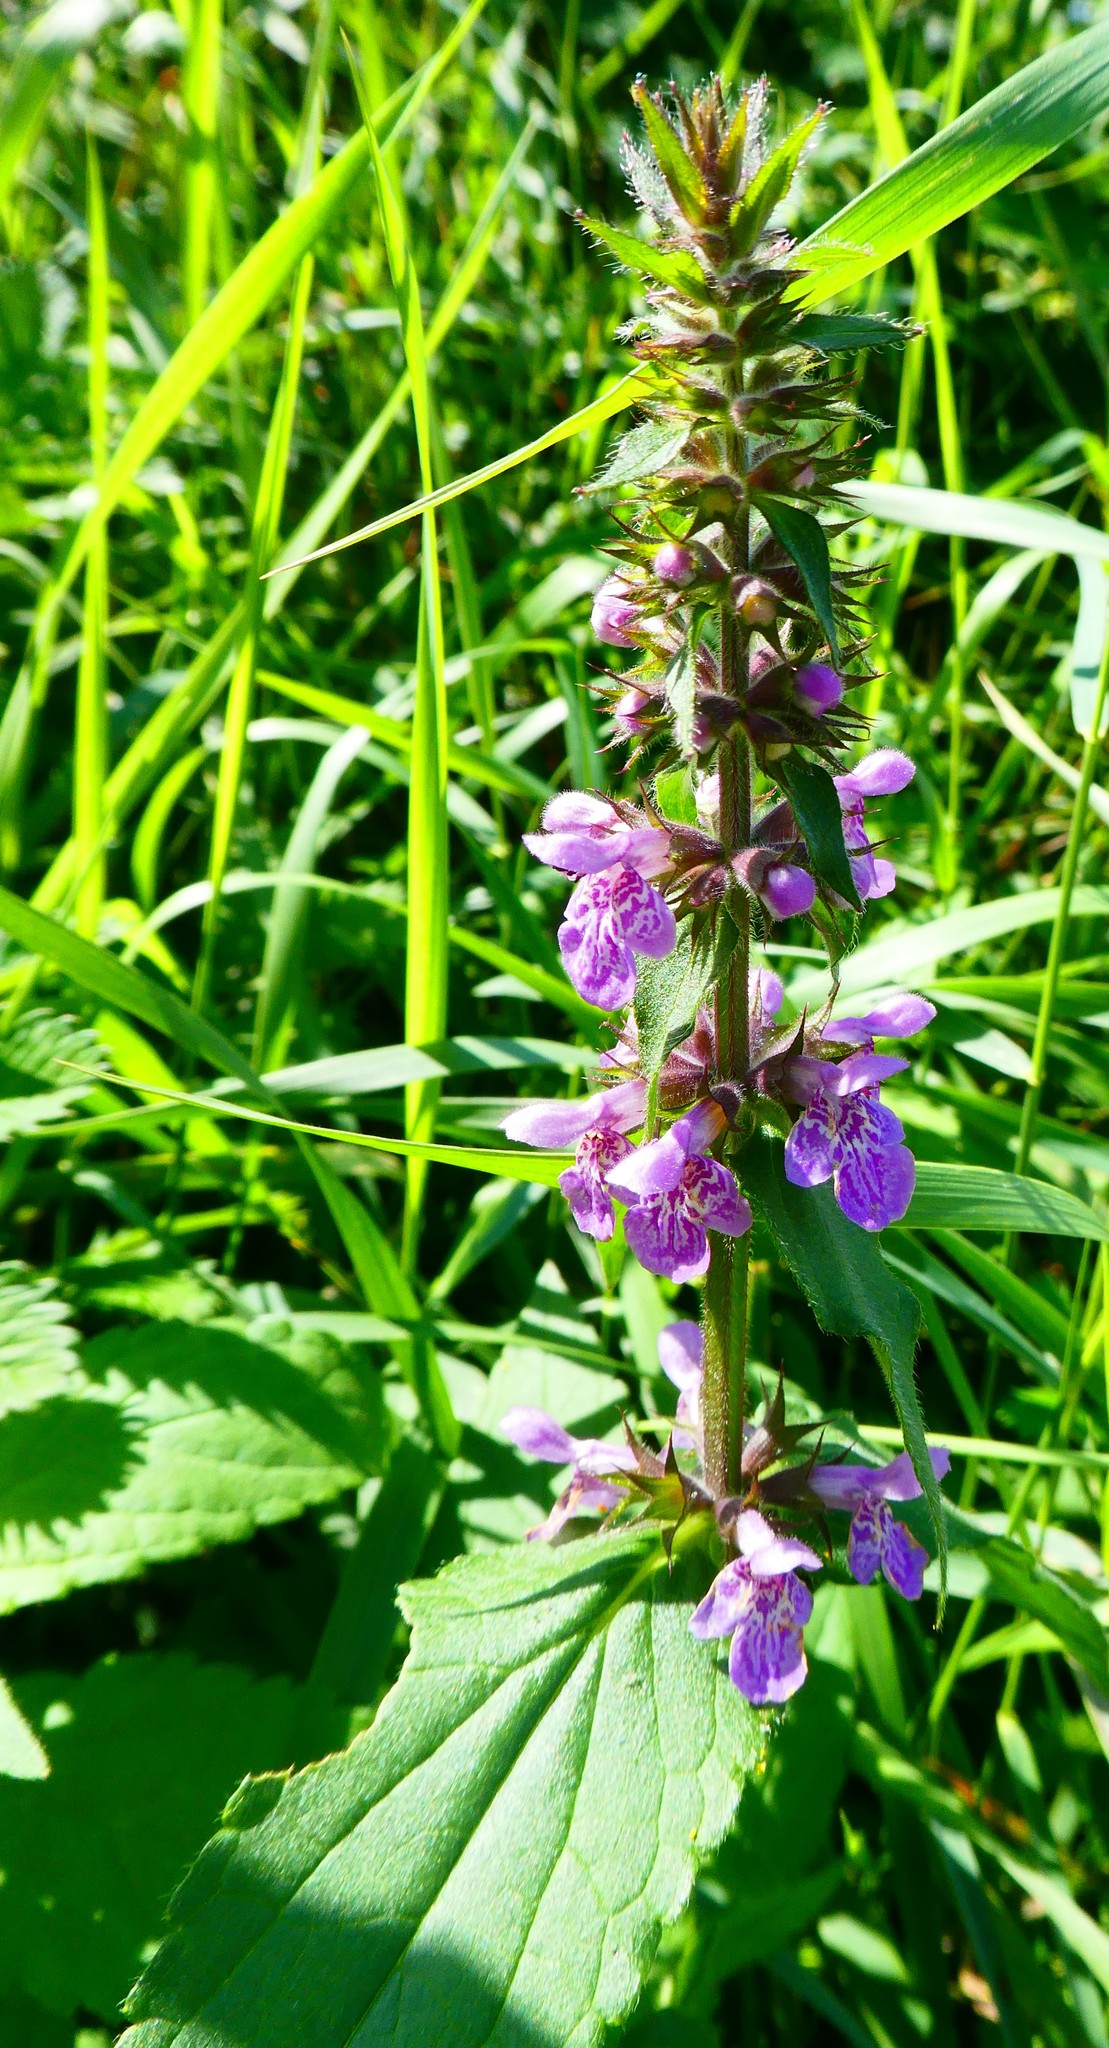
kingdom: Plantae
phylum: Tracheophyta
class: Magnoliopsida
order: Lamiales
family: Lamiaceae
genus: Stachys
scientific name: Stachys palustris
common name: Marsh woundwort
